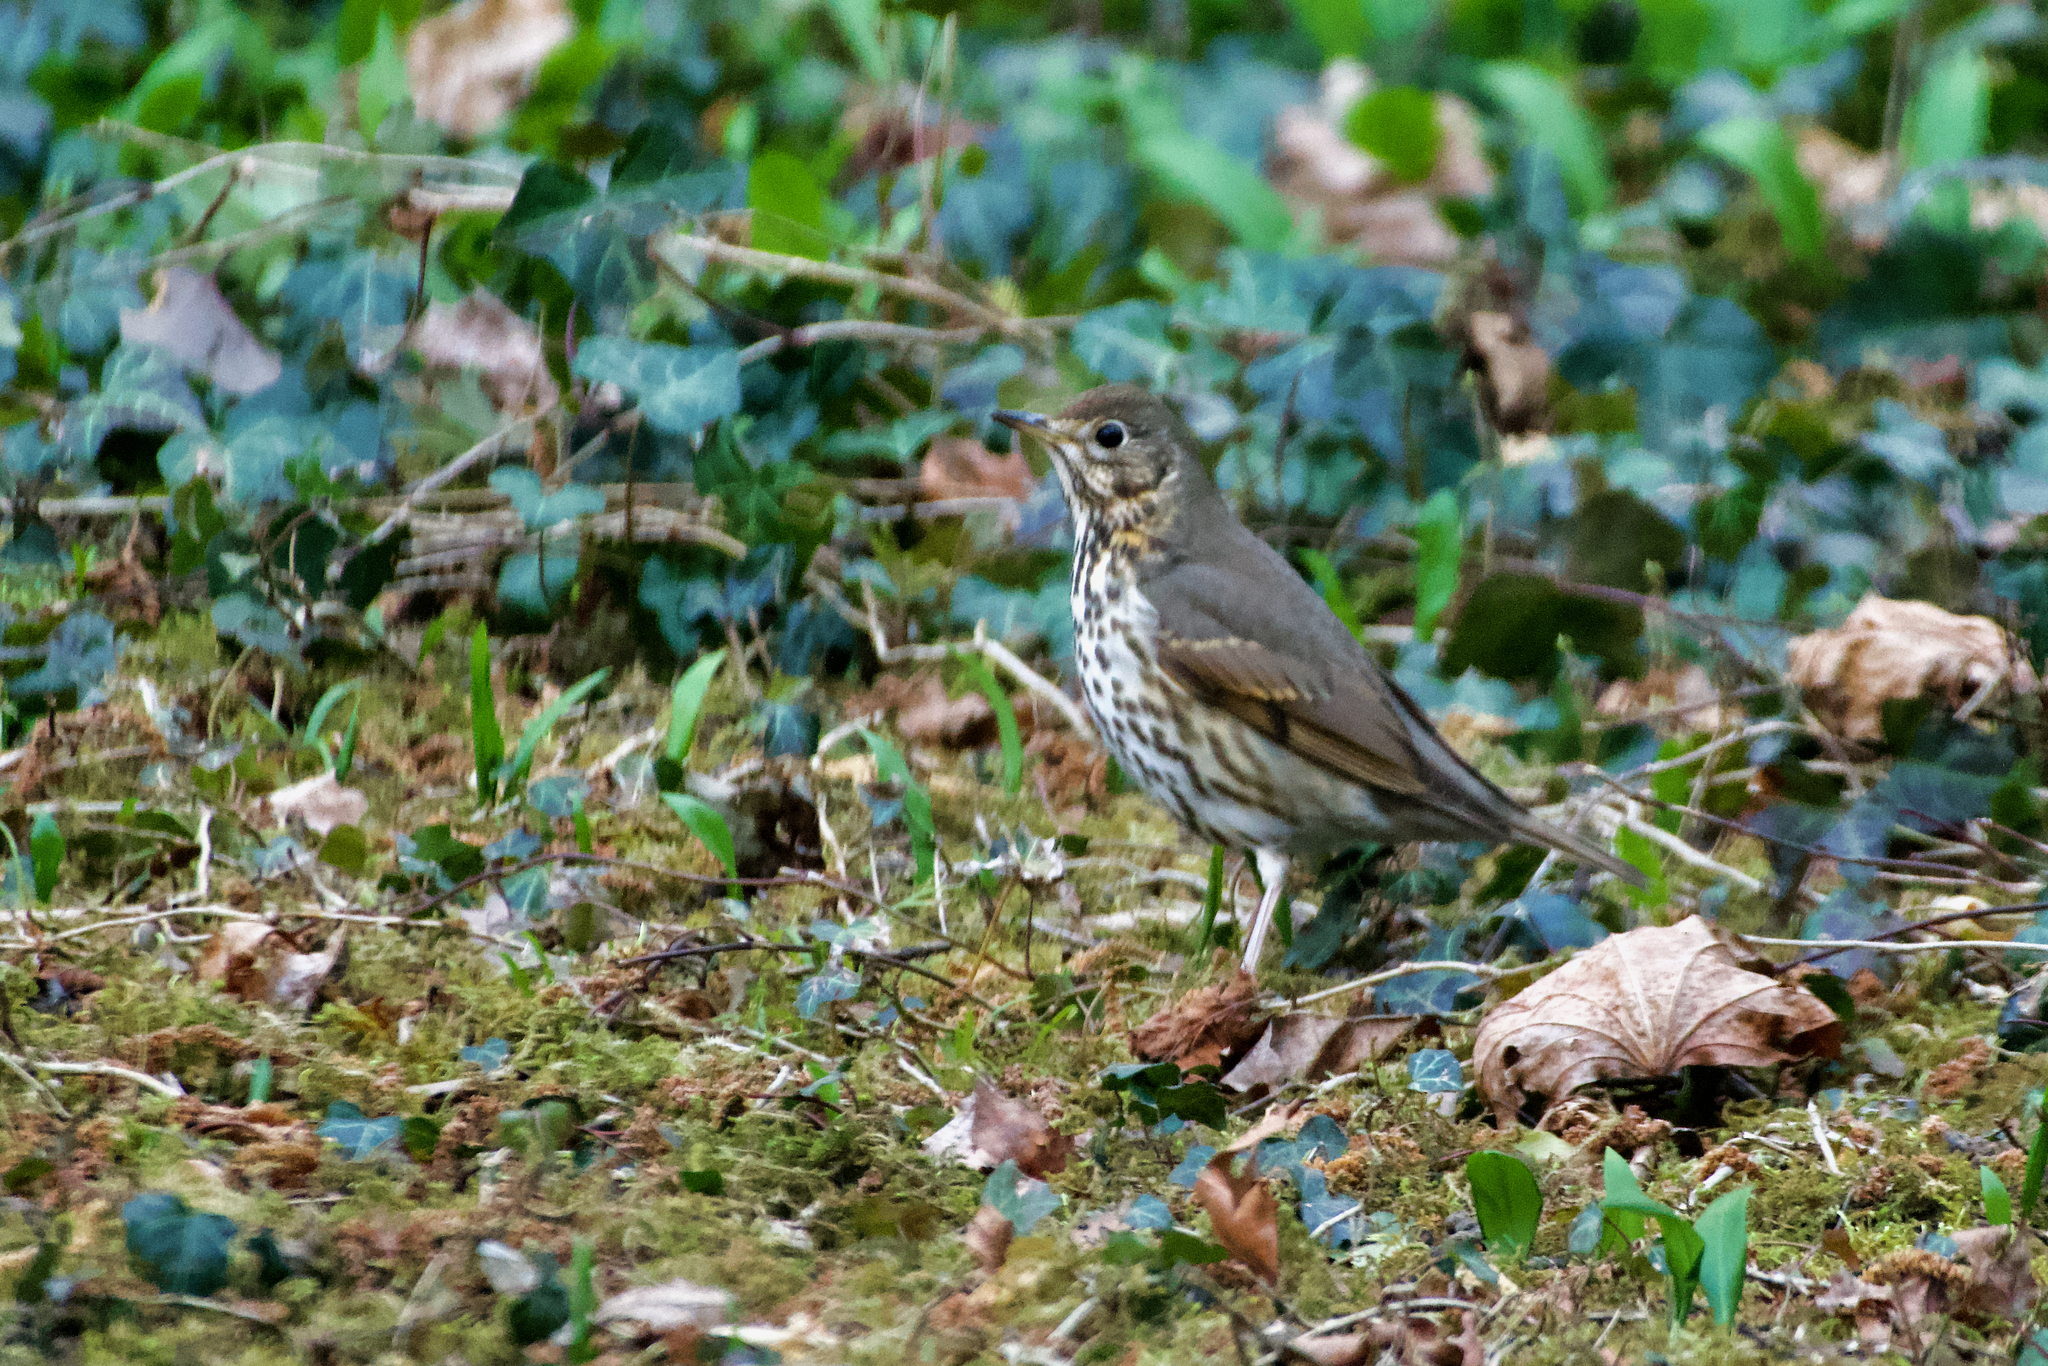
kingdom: Animalia
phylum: Chordata
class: Aves
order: Passeriformes
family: Turdidae
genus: Turdus
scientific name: Turdus philomelos
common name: Song thrush
